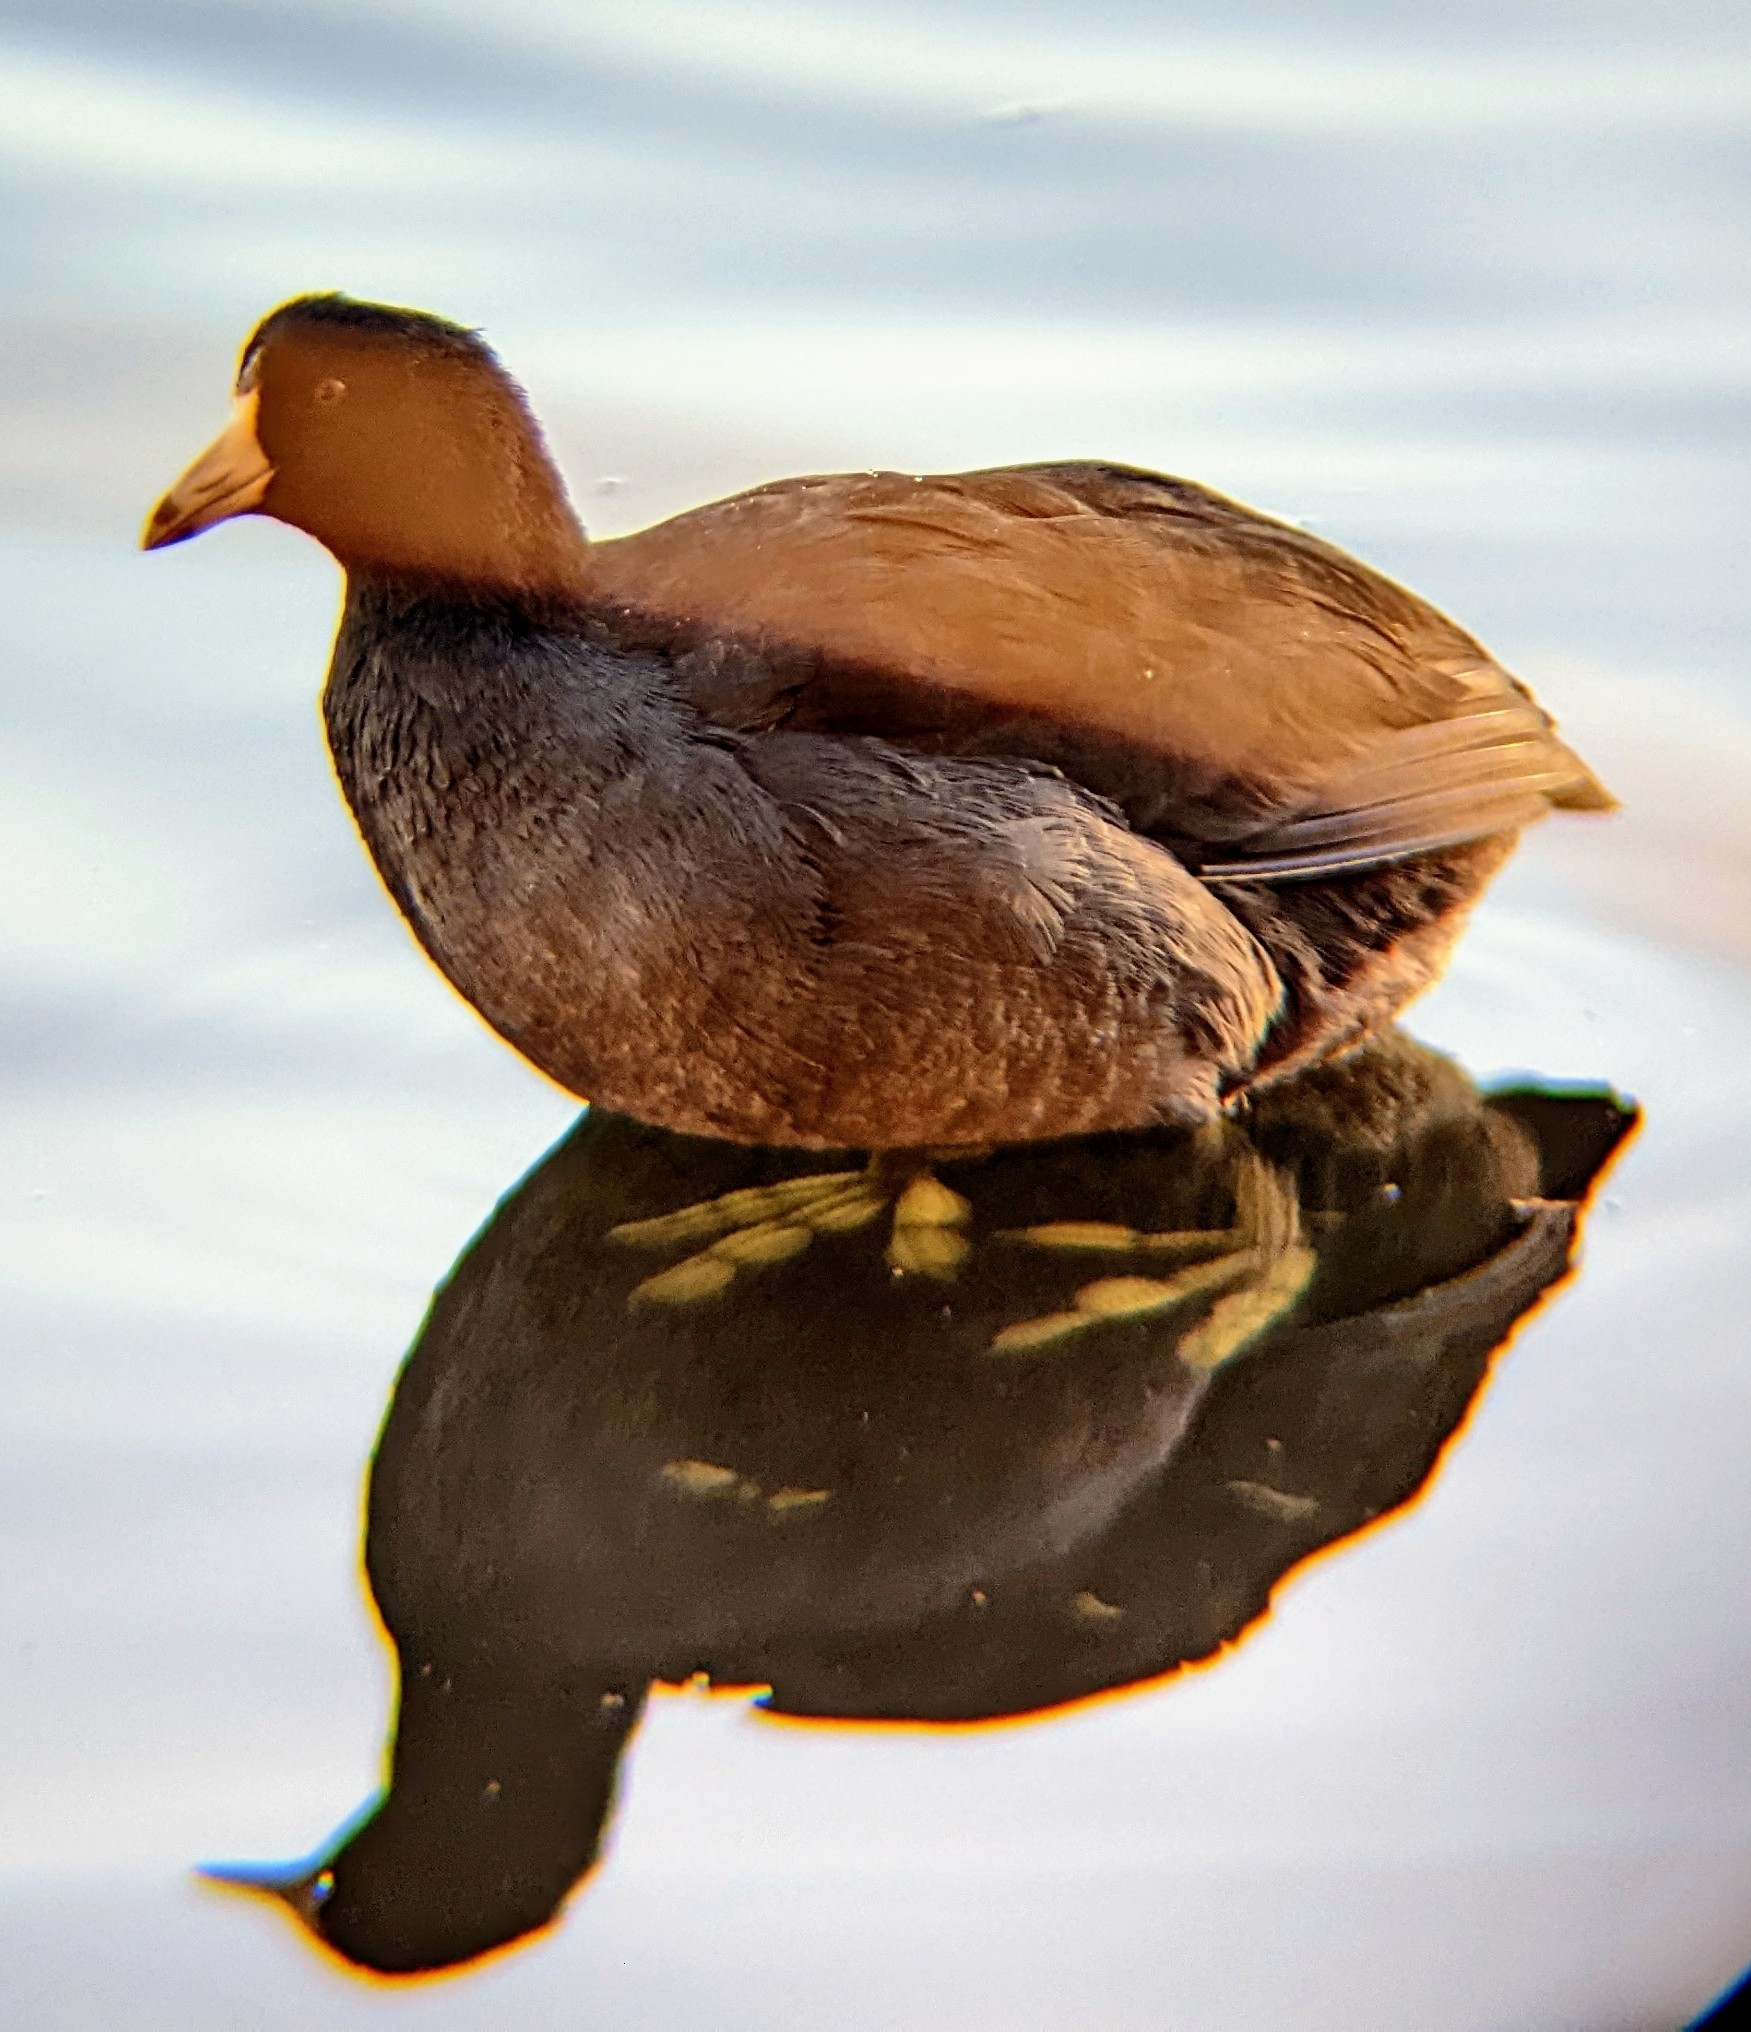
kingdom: Animalia
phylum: Chordata
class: Aves
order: Gruiformes
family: Rallidae
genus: Fulica
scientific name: Fulica americana
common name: American coot
